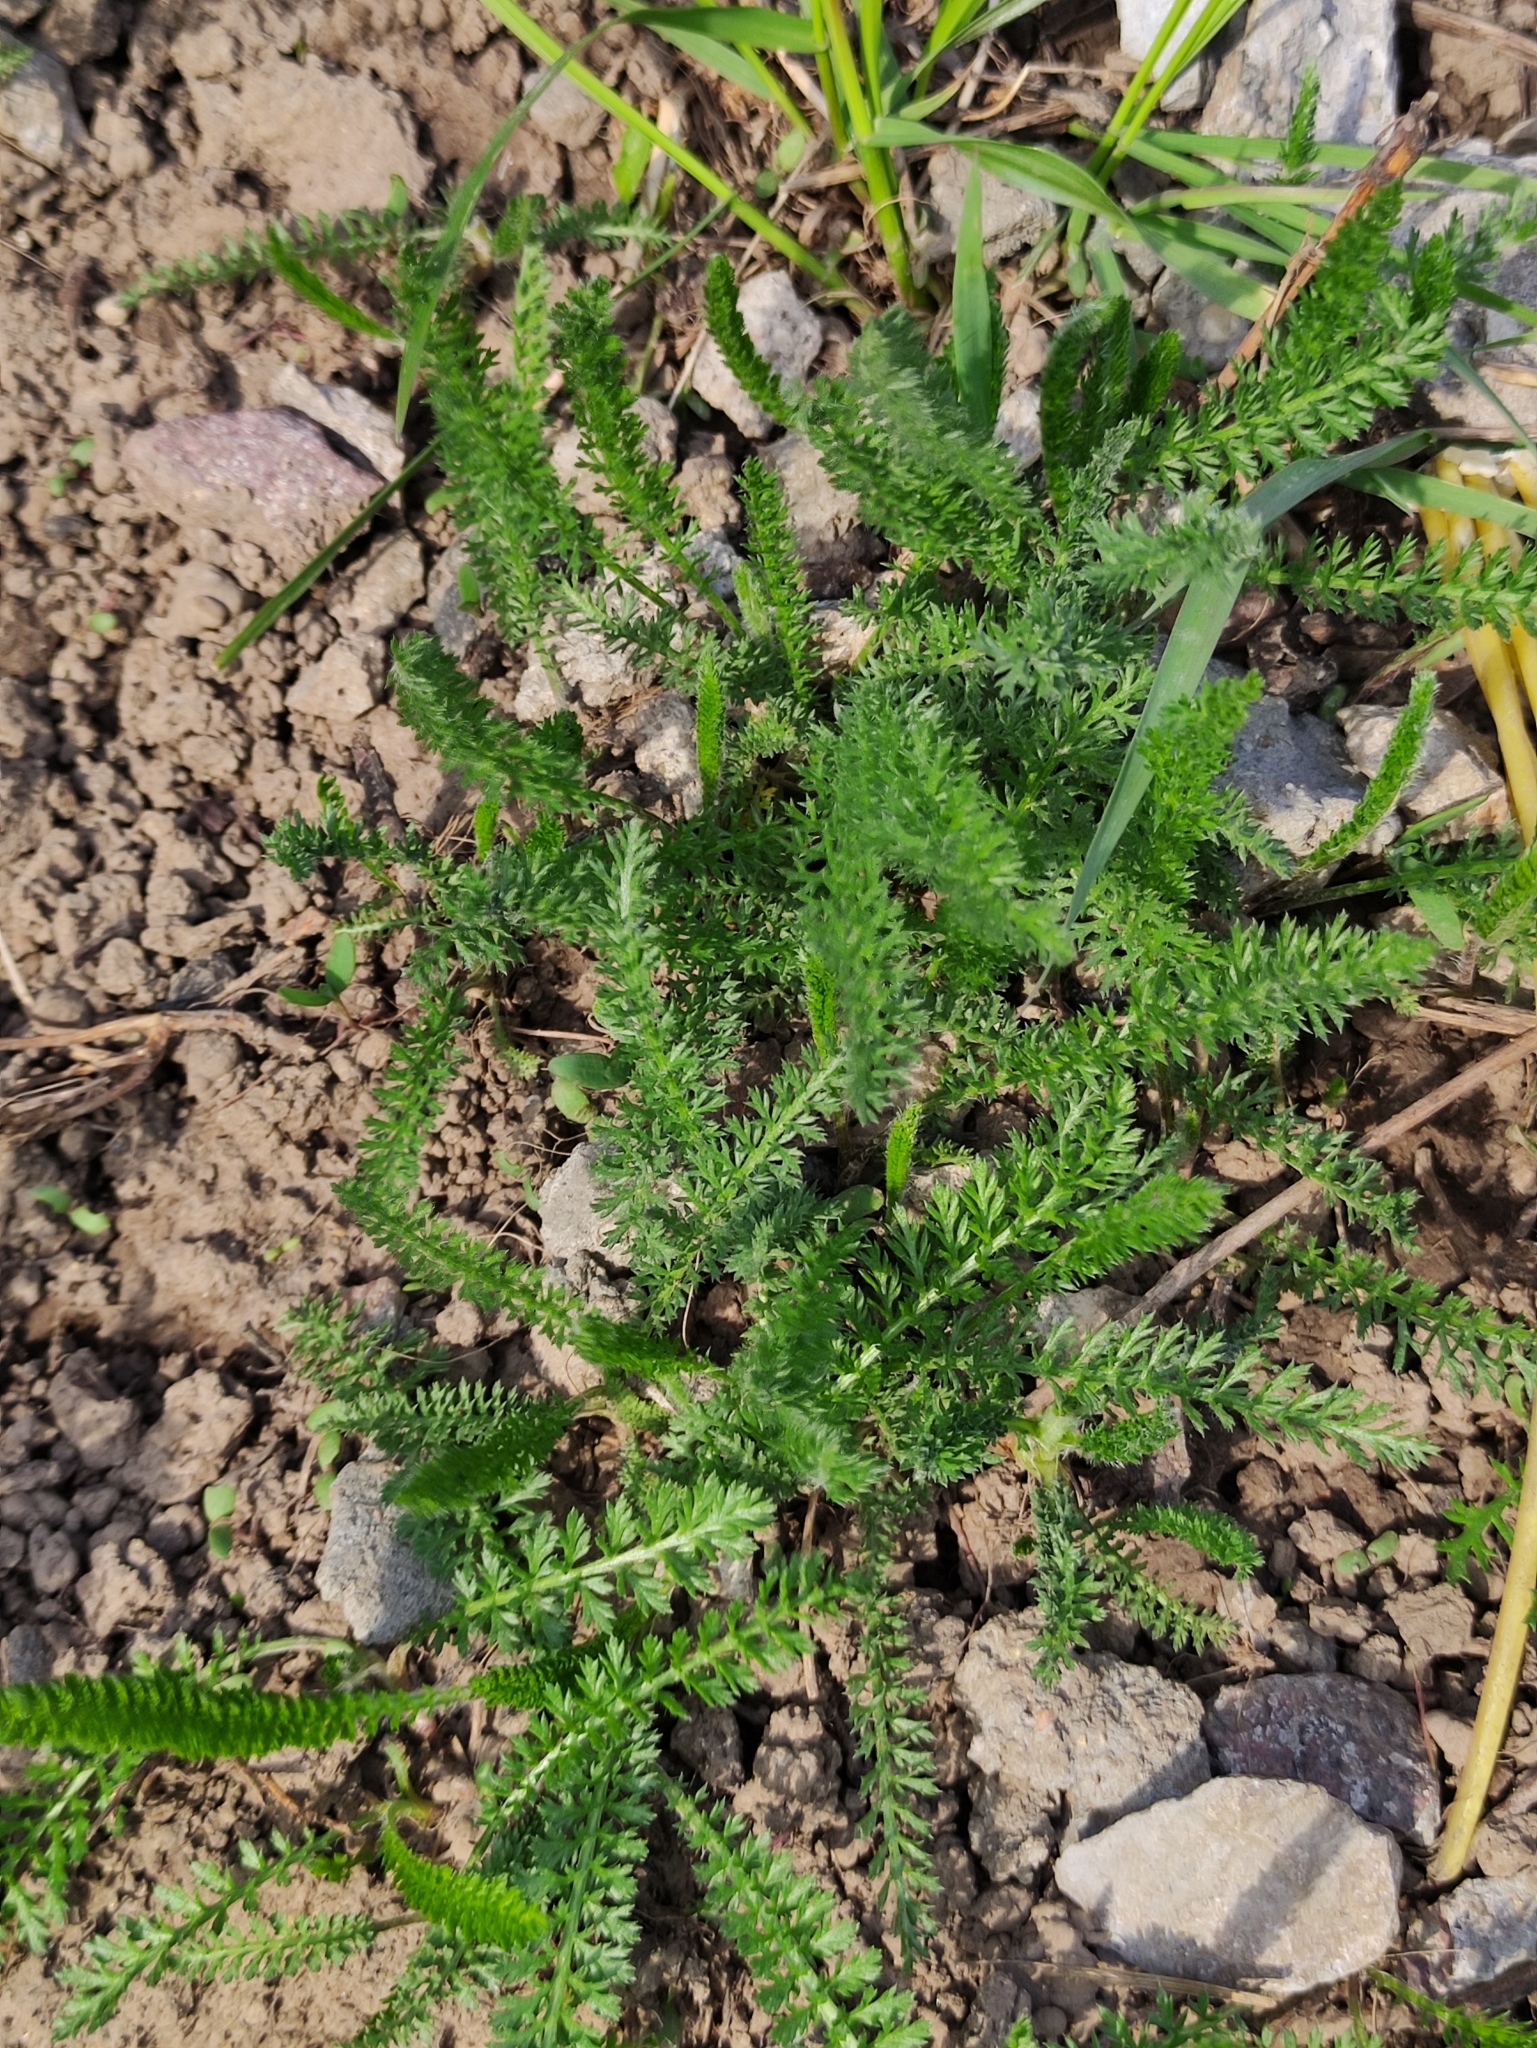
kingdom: Plantae
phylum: Tracheophyta
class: Magnoliopsida
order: Asterales
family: Asteraceae
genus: Achillea
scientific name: Achillea millefolium
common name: Yarrow
